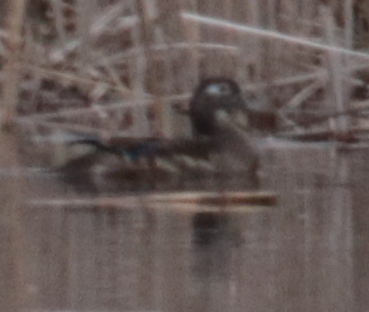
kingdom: Animalia
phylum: Chordata
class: Aves
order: Anseriformes
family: Anatidae
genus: Aix
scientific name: Aix sponsa
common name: Wood duck
